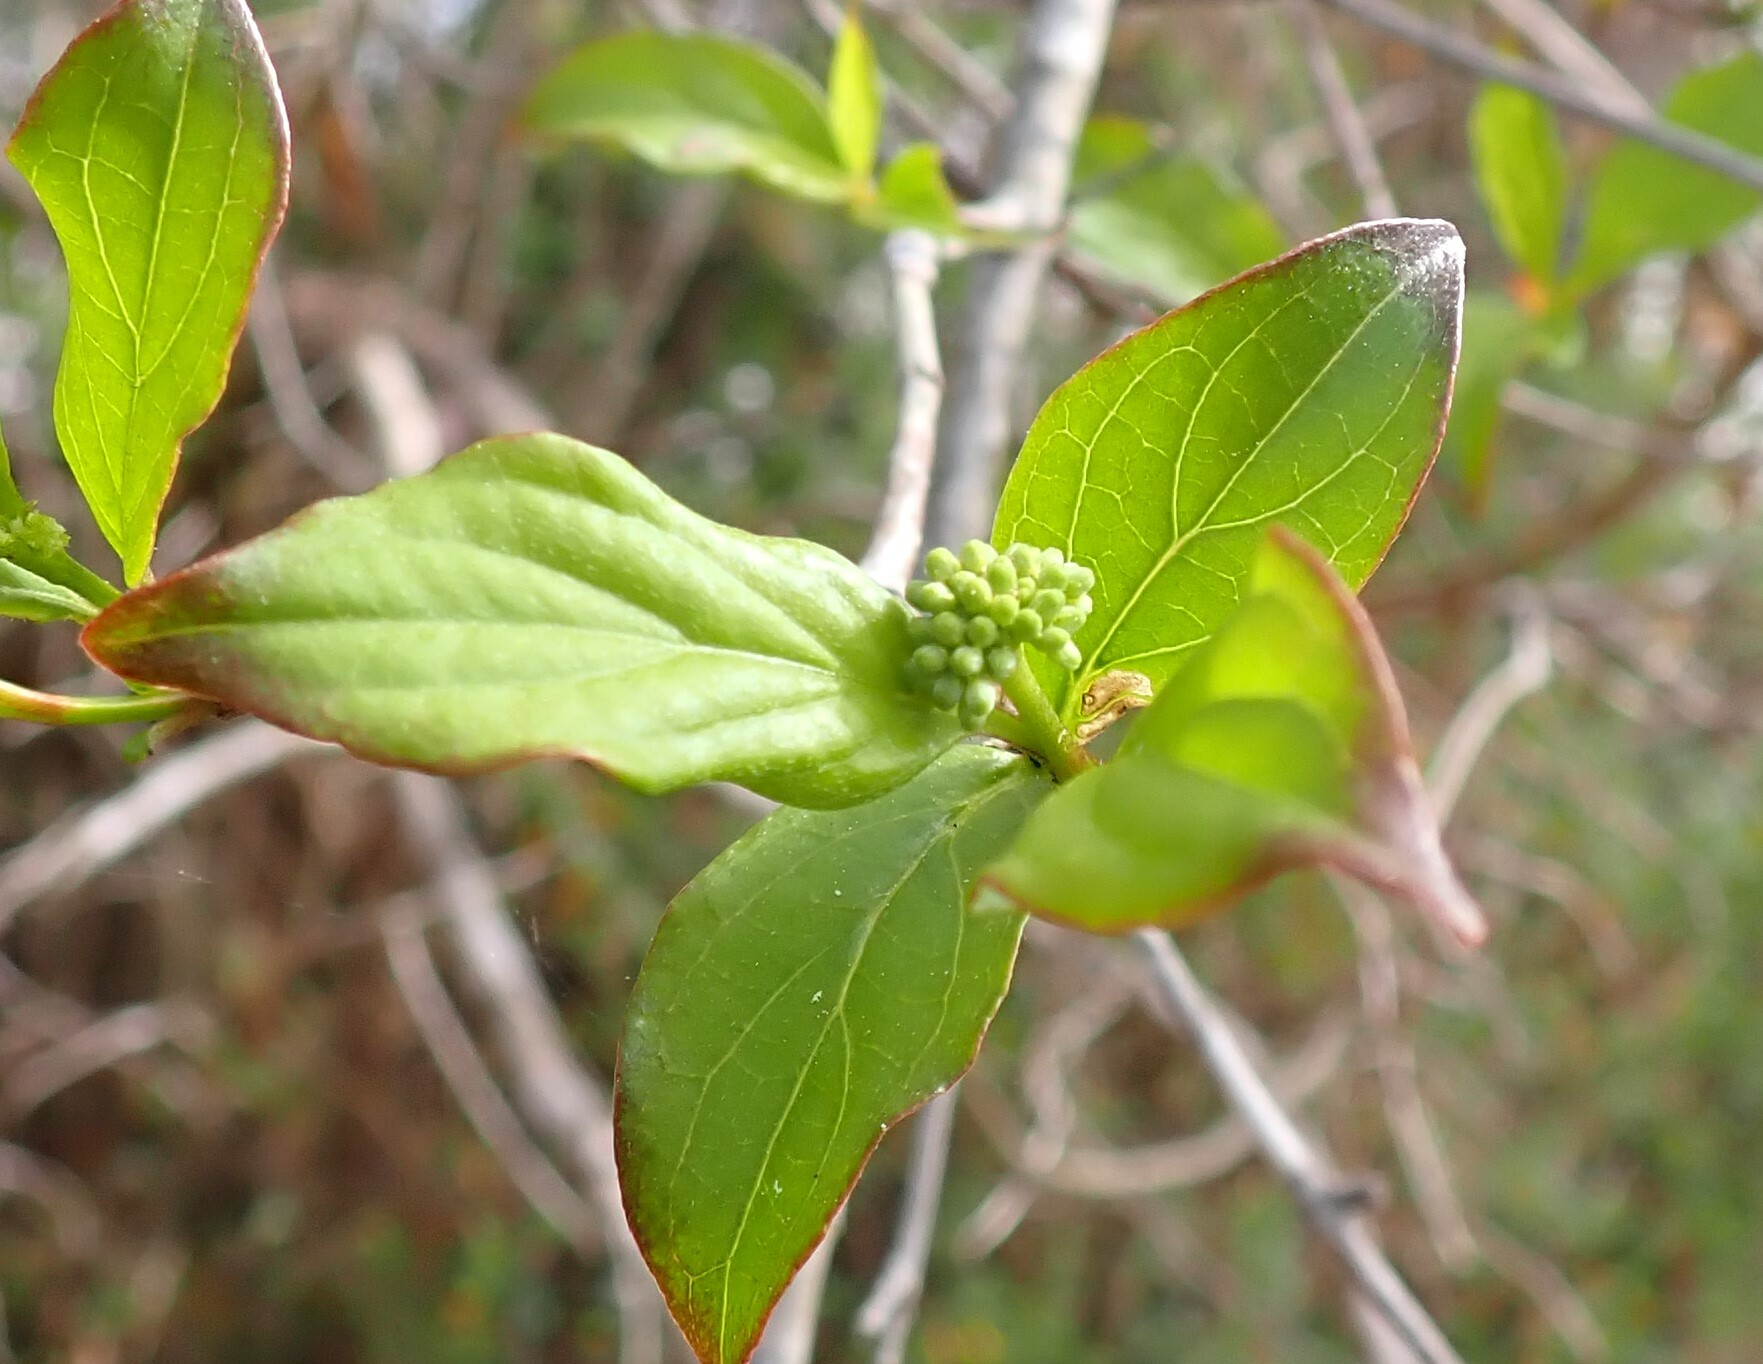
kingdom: Plantae
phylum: Tracheophyta
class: Magnoliopsida
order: Cornales
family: Cornaceae
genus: Cornus
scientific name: Cornus foemina
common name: Swamp dogwood
